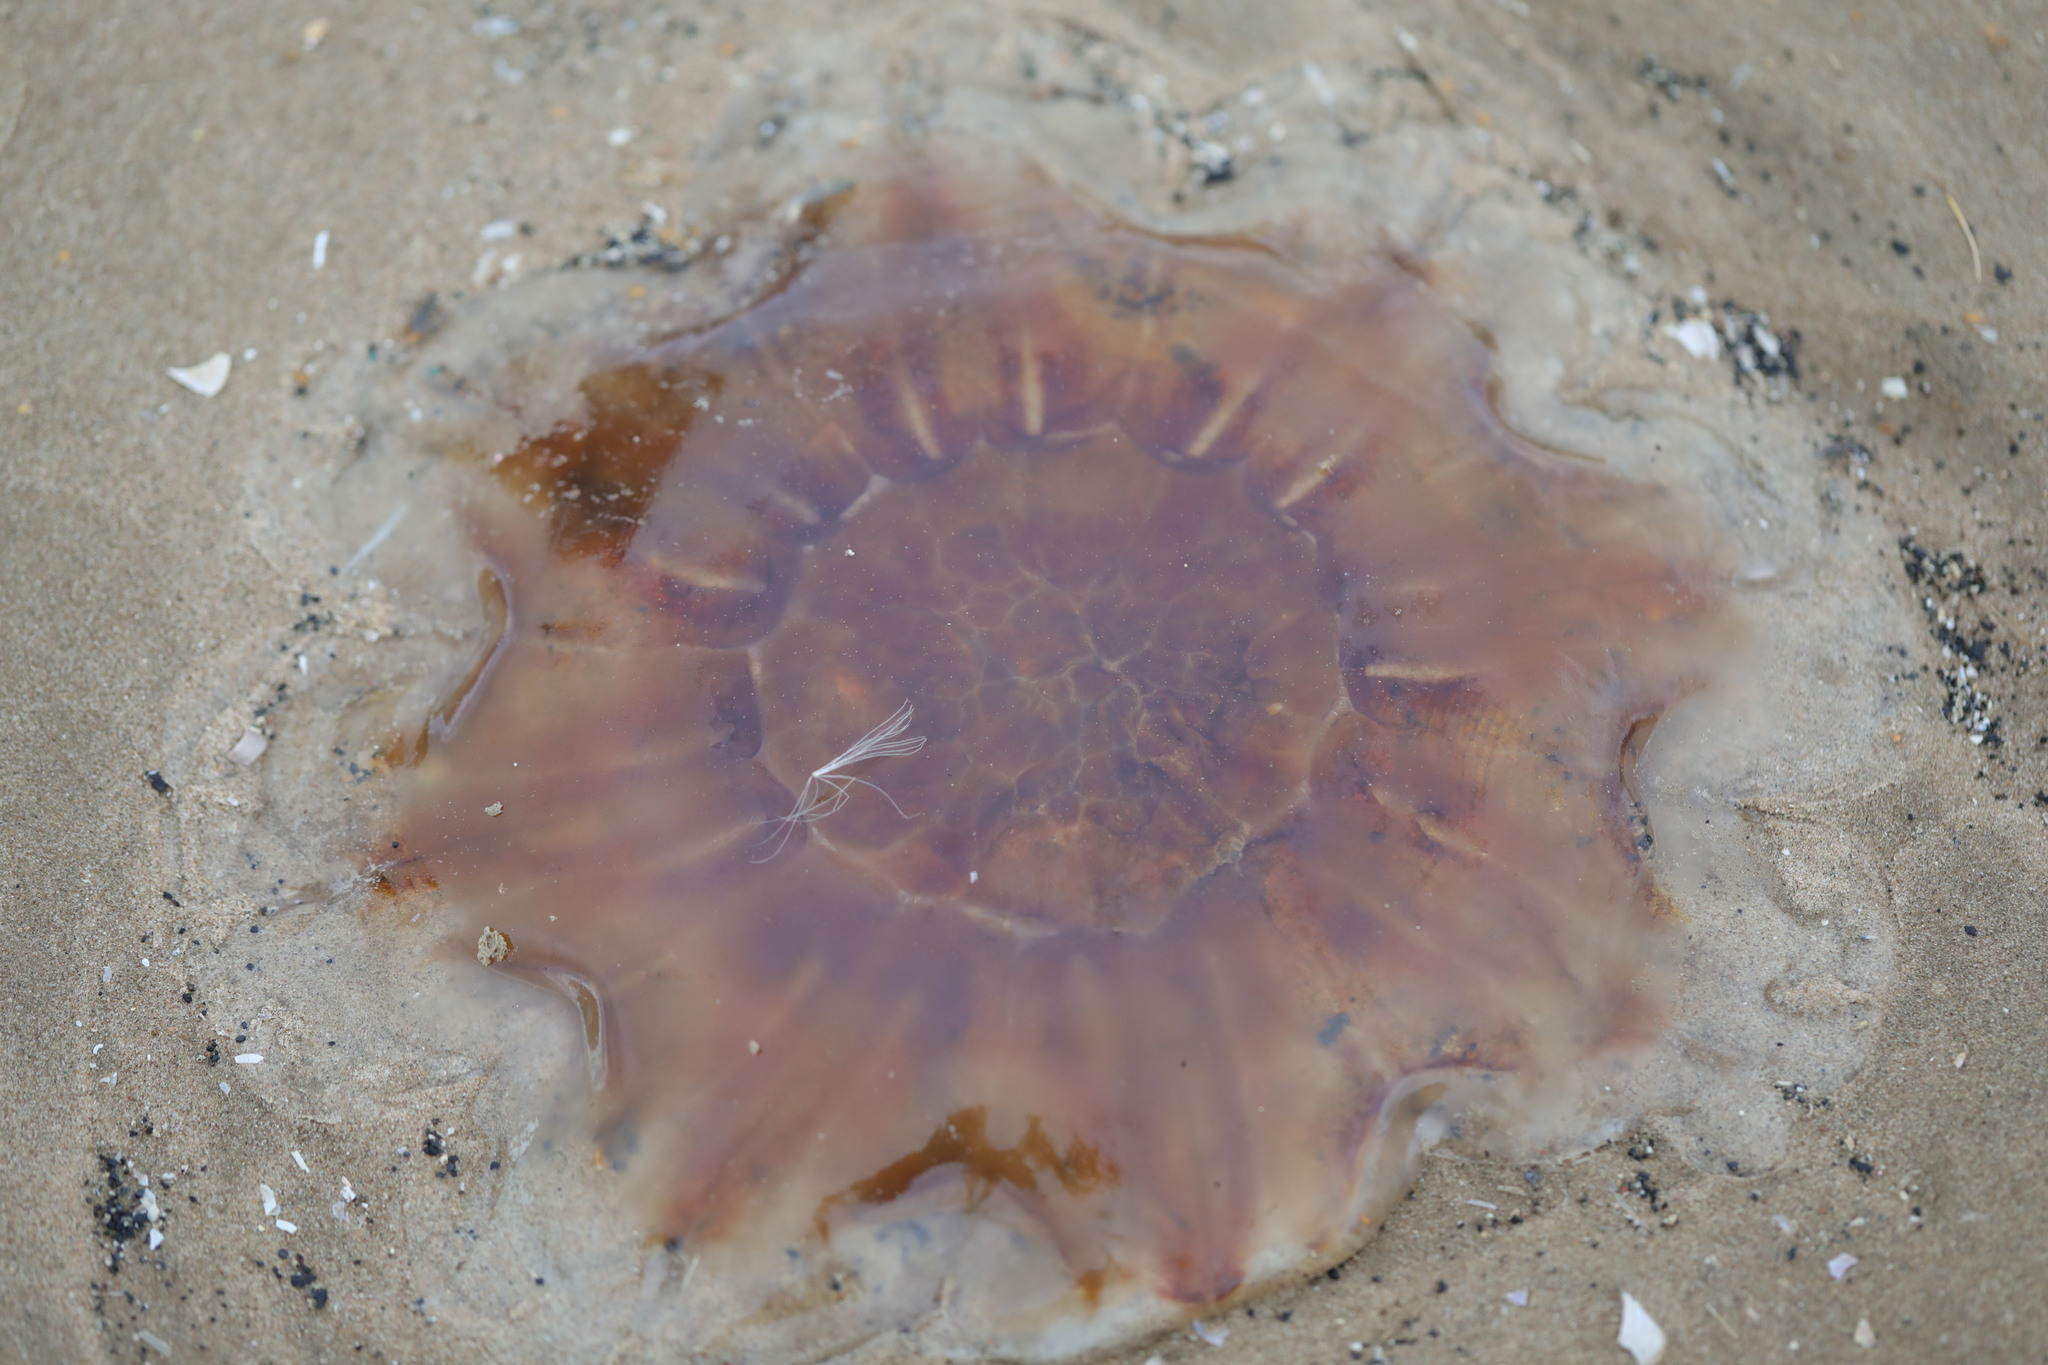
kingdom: Animalia
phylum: Cnidaria
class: Scyphozoa
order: Semaeostomeae
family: Cyaneidae
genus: Cyanea
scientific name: Cyanea capillata
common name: Lion's mane jellyfish
